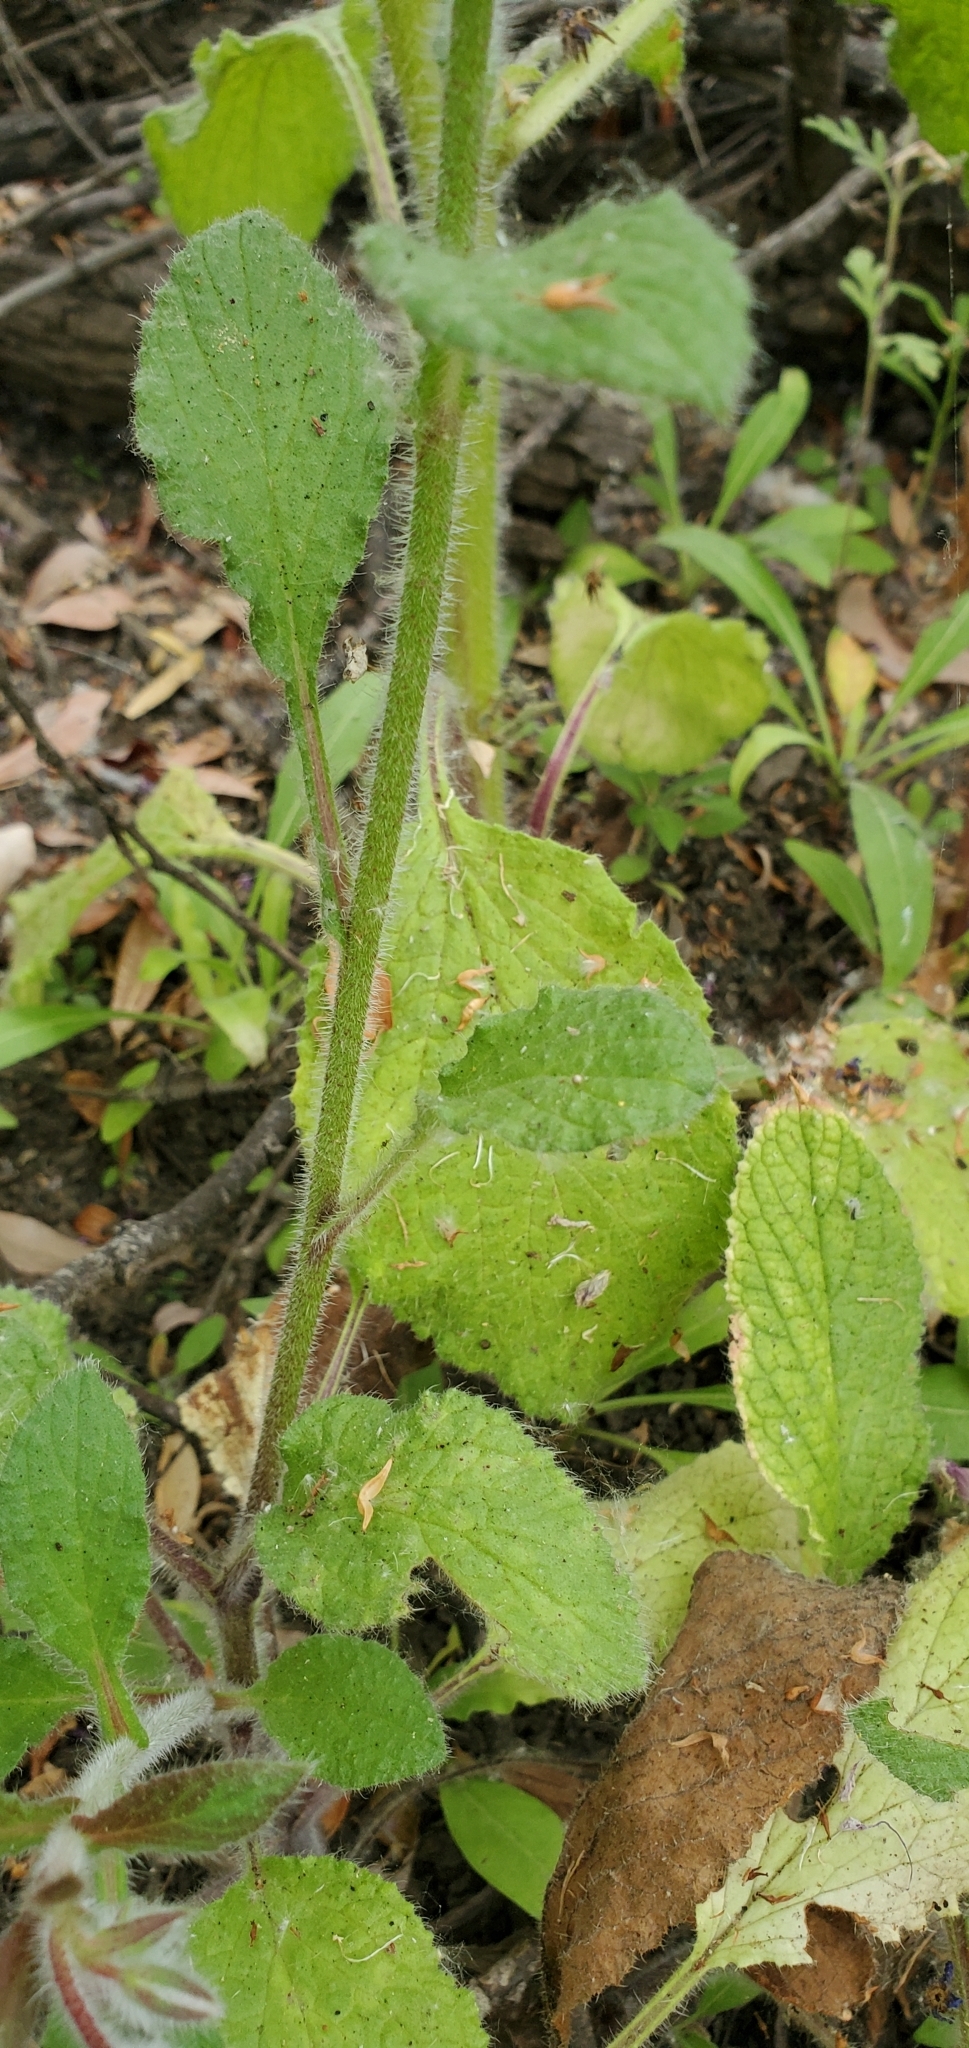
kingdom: Plantae
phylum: Tracheophyta
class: Magnoliopsida
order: Boraginales
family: Boraginaceae
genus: Borago
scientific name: Borago officinalis
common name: Borage
